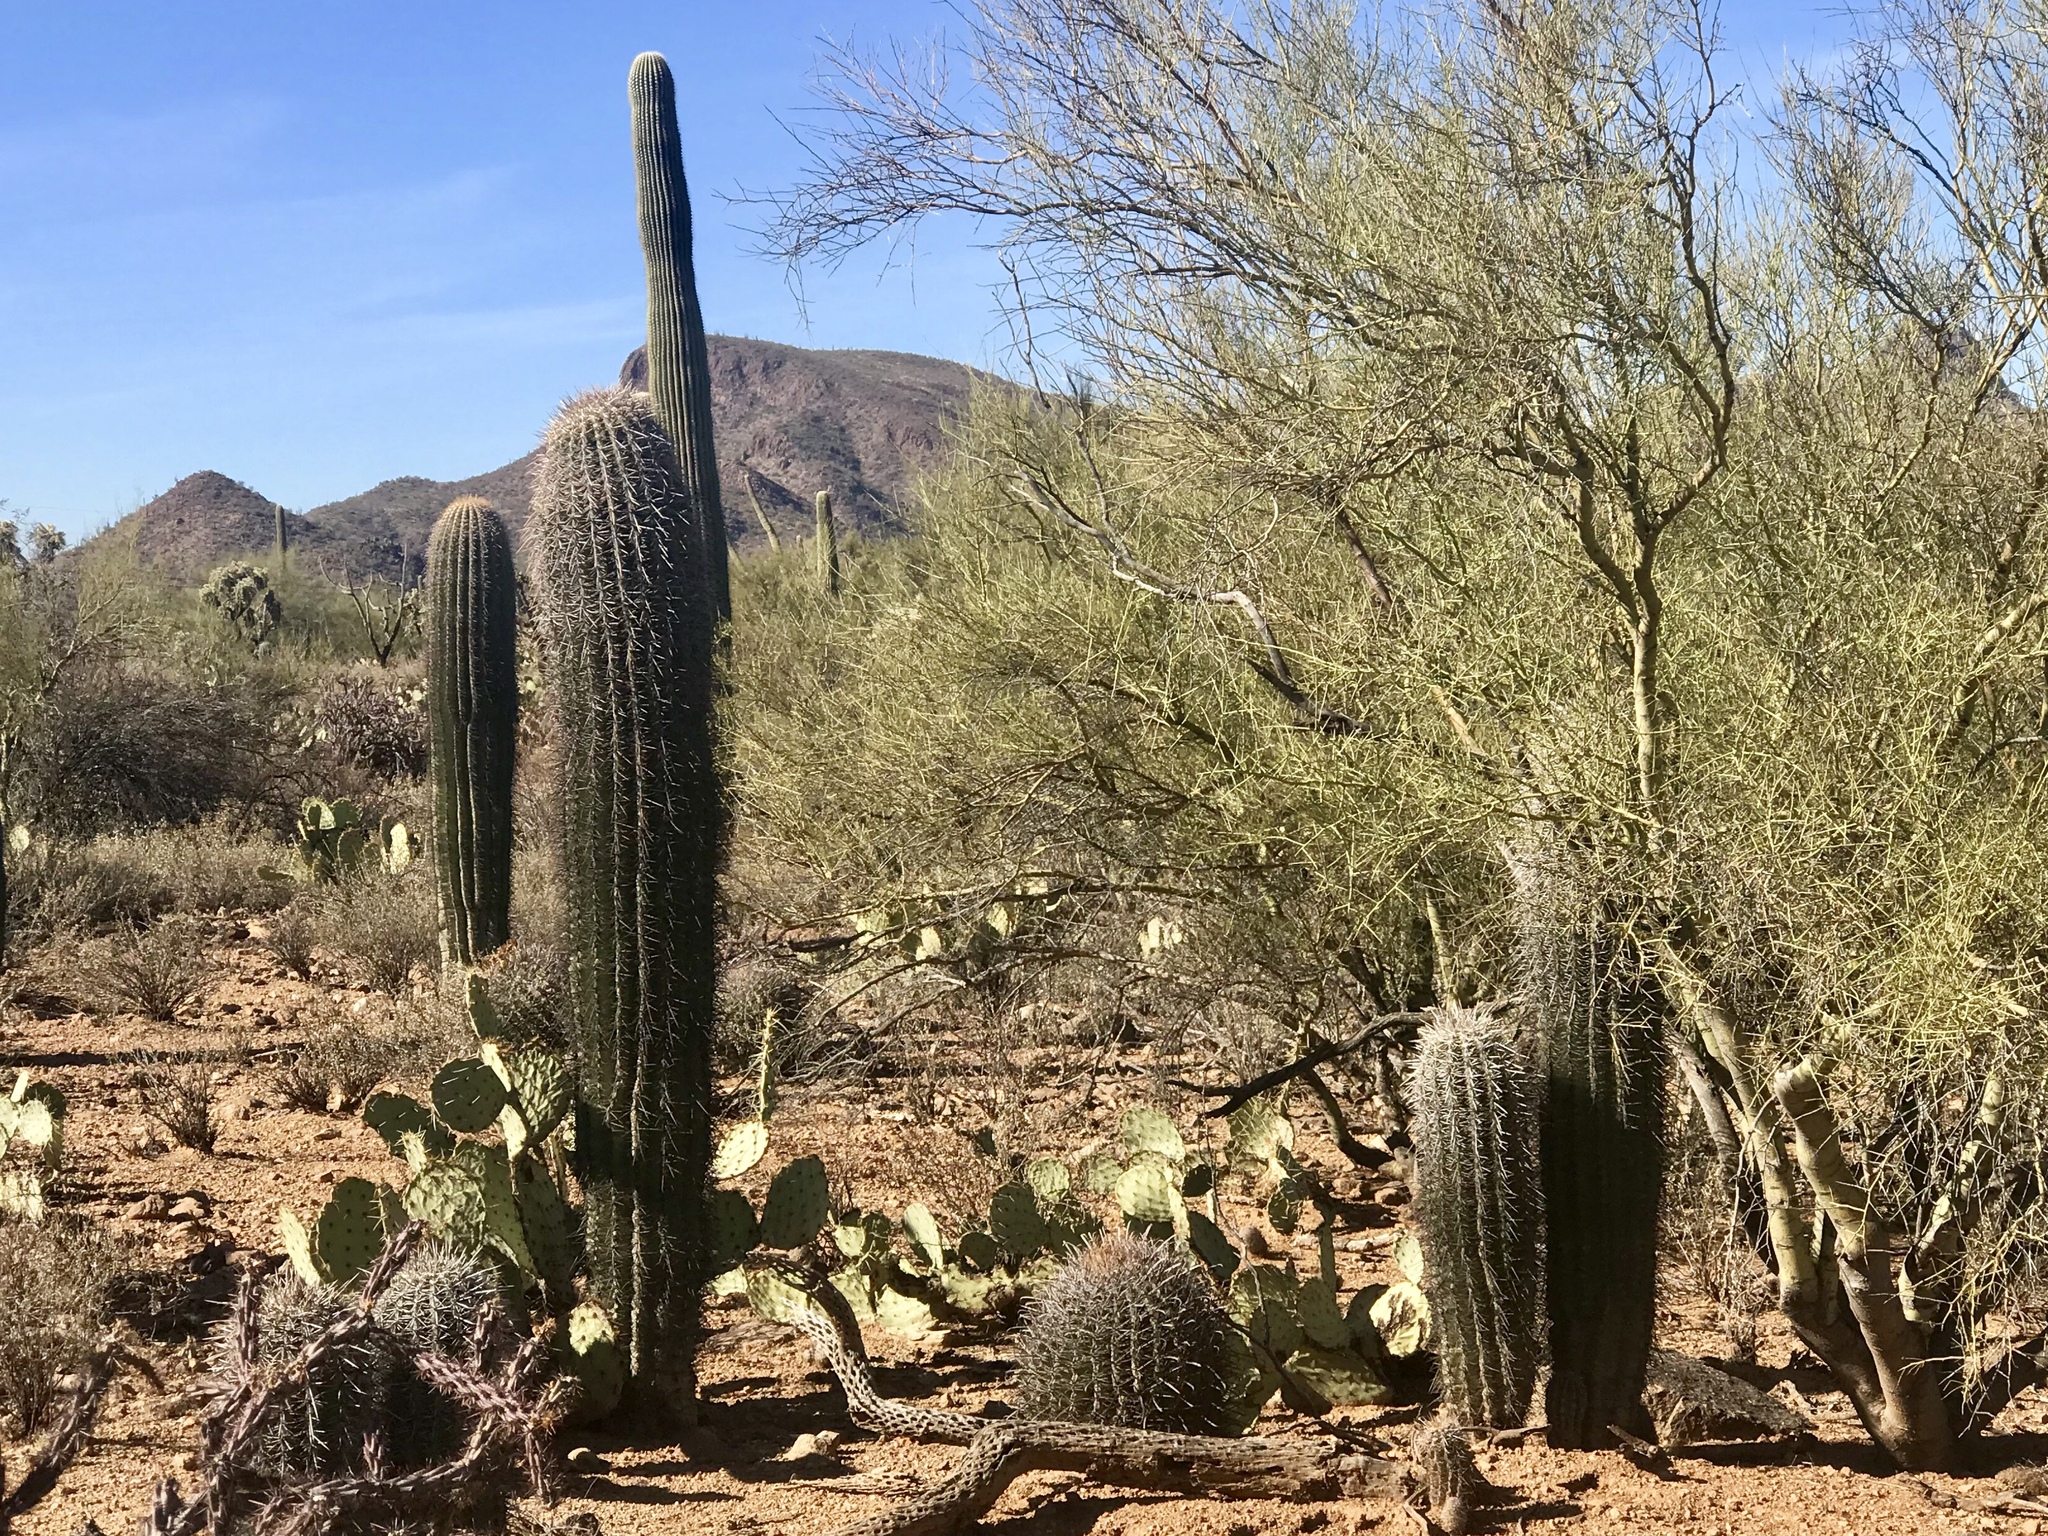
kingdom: Plantae
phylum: Tracheophyta
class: Magnoliopsida
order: Caryophyllales
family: Cactaceae
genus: Carnegiea
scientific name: Carnegiea gigantea
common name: Saguaro
